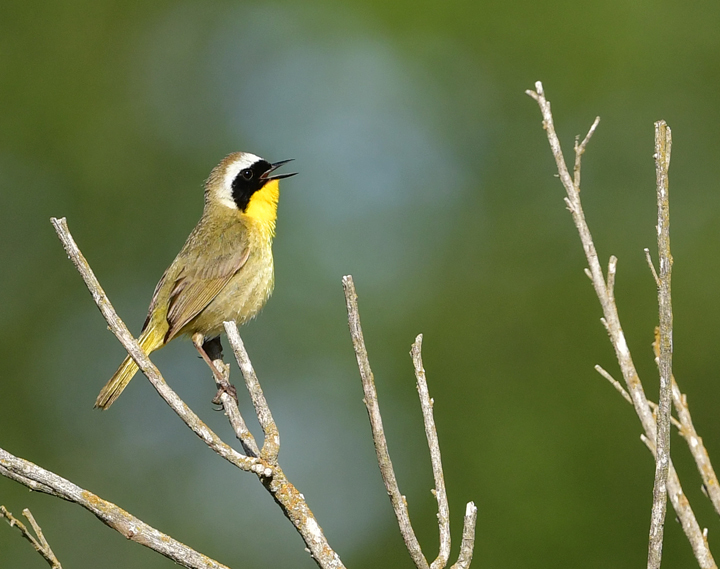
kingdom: Animalia
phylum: Chordata
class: Aves
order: Passeriformes
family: Parulidae
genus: Geothlypis
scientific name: Geothlypis trichas
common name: Common yellowthroat
